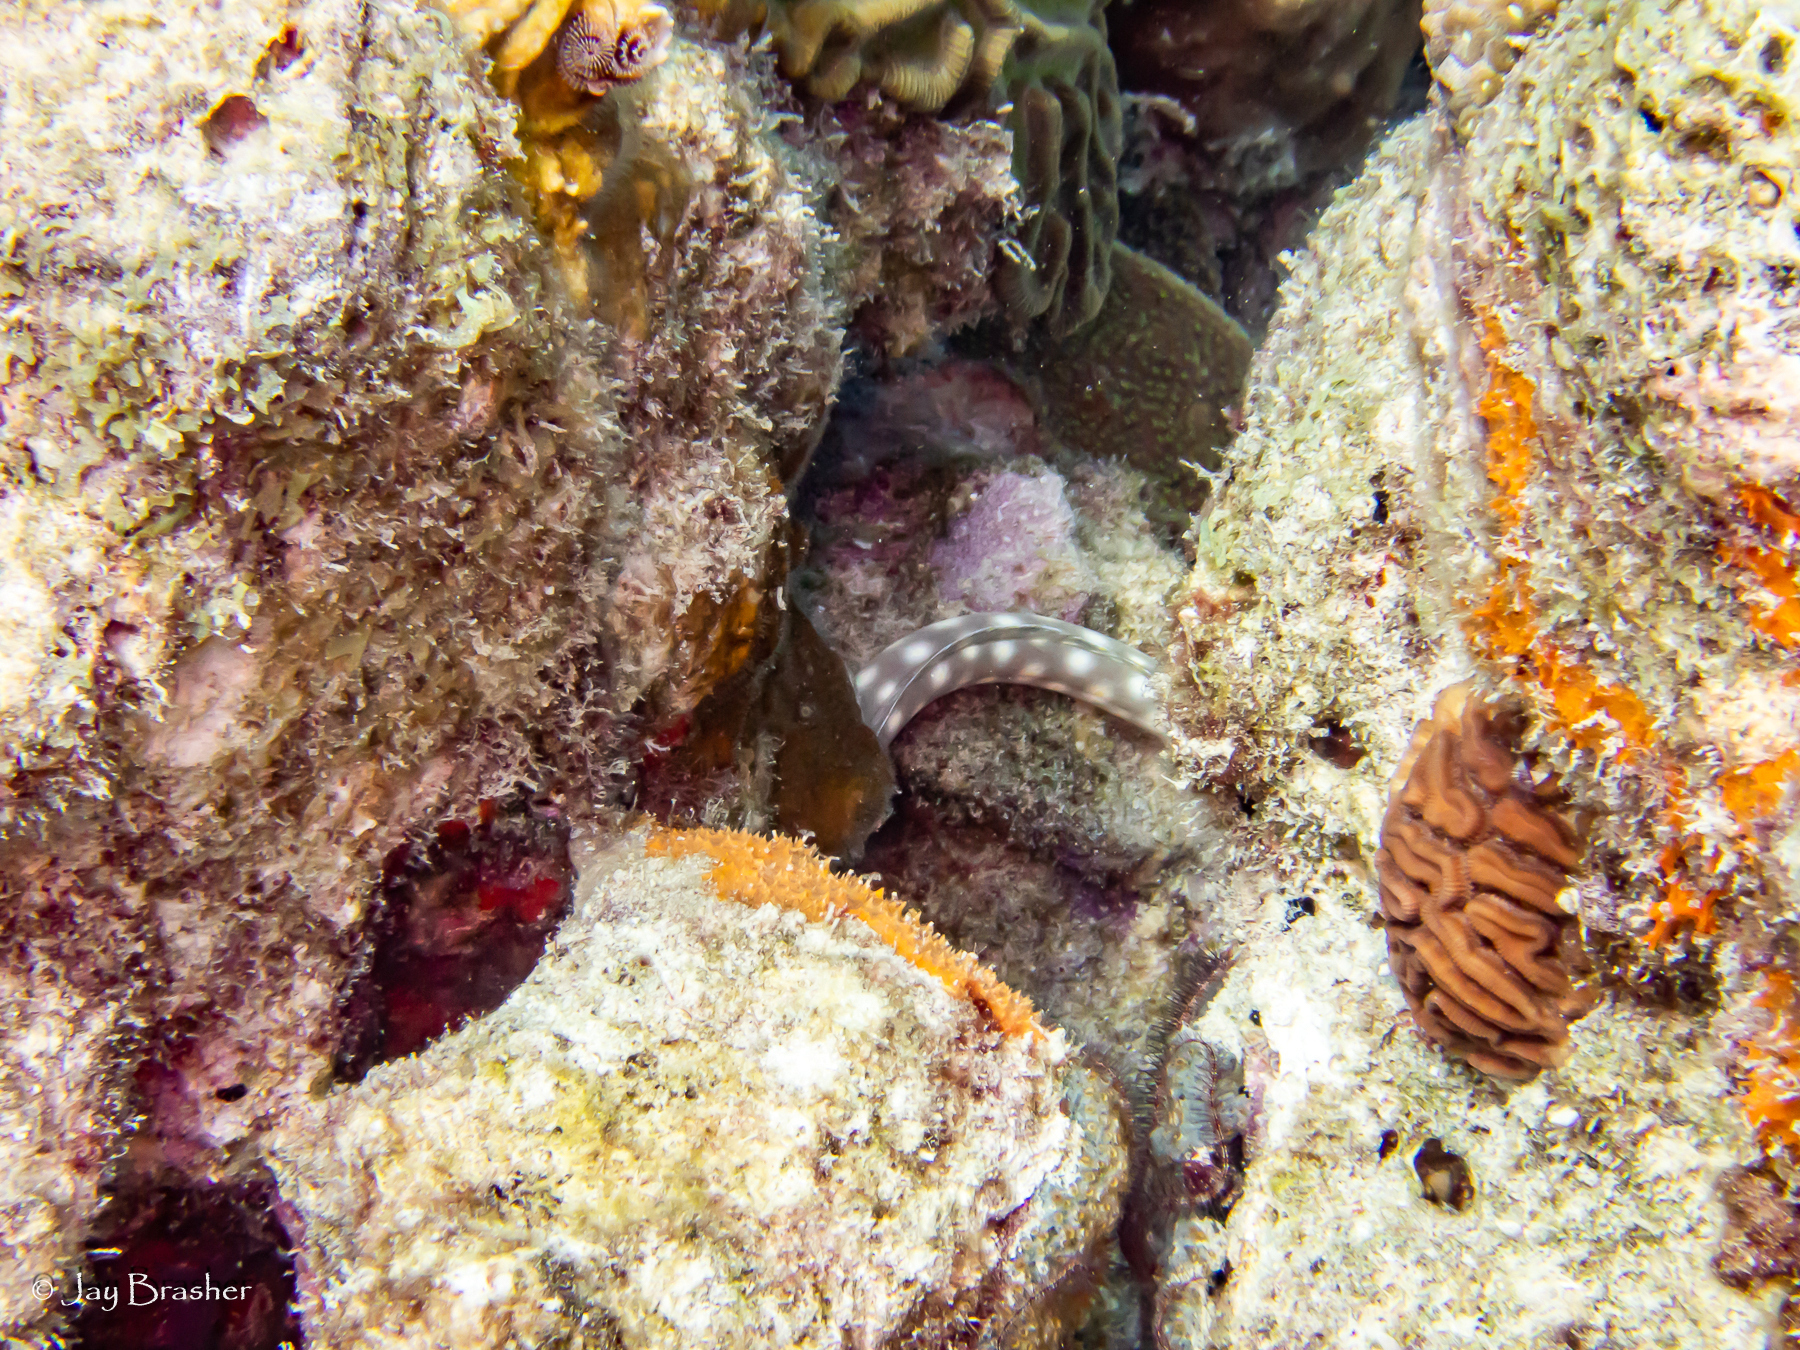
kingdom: Animalia
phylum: Porifera
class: Demospongiae
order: Scopalinida
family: Scopalinidae
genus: Scopalina
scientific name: Scopalina ruetzleri
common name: Orange lumpy encrusting sponge
